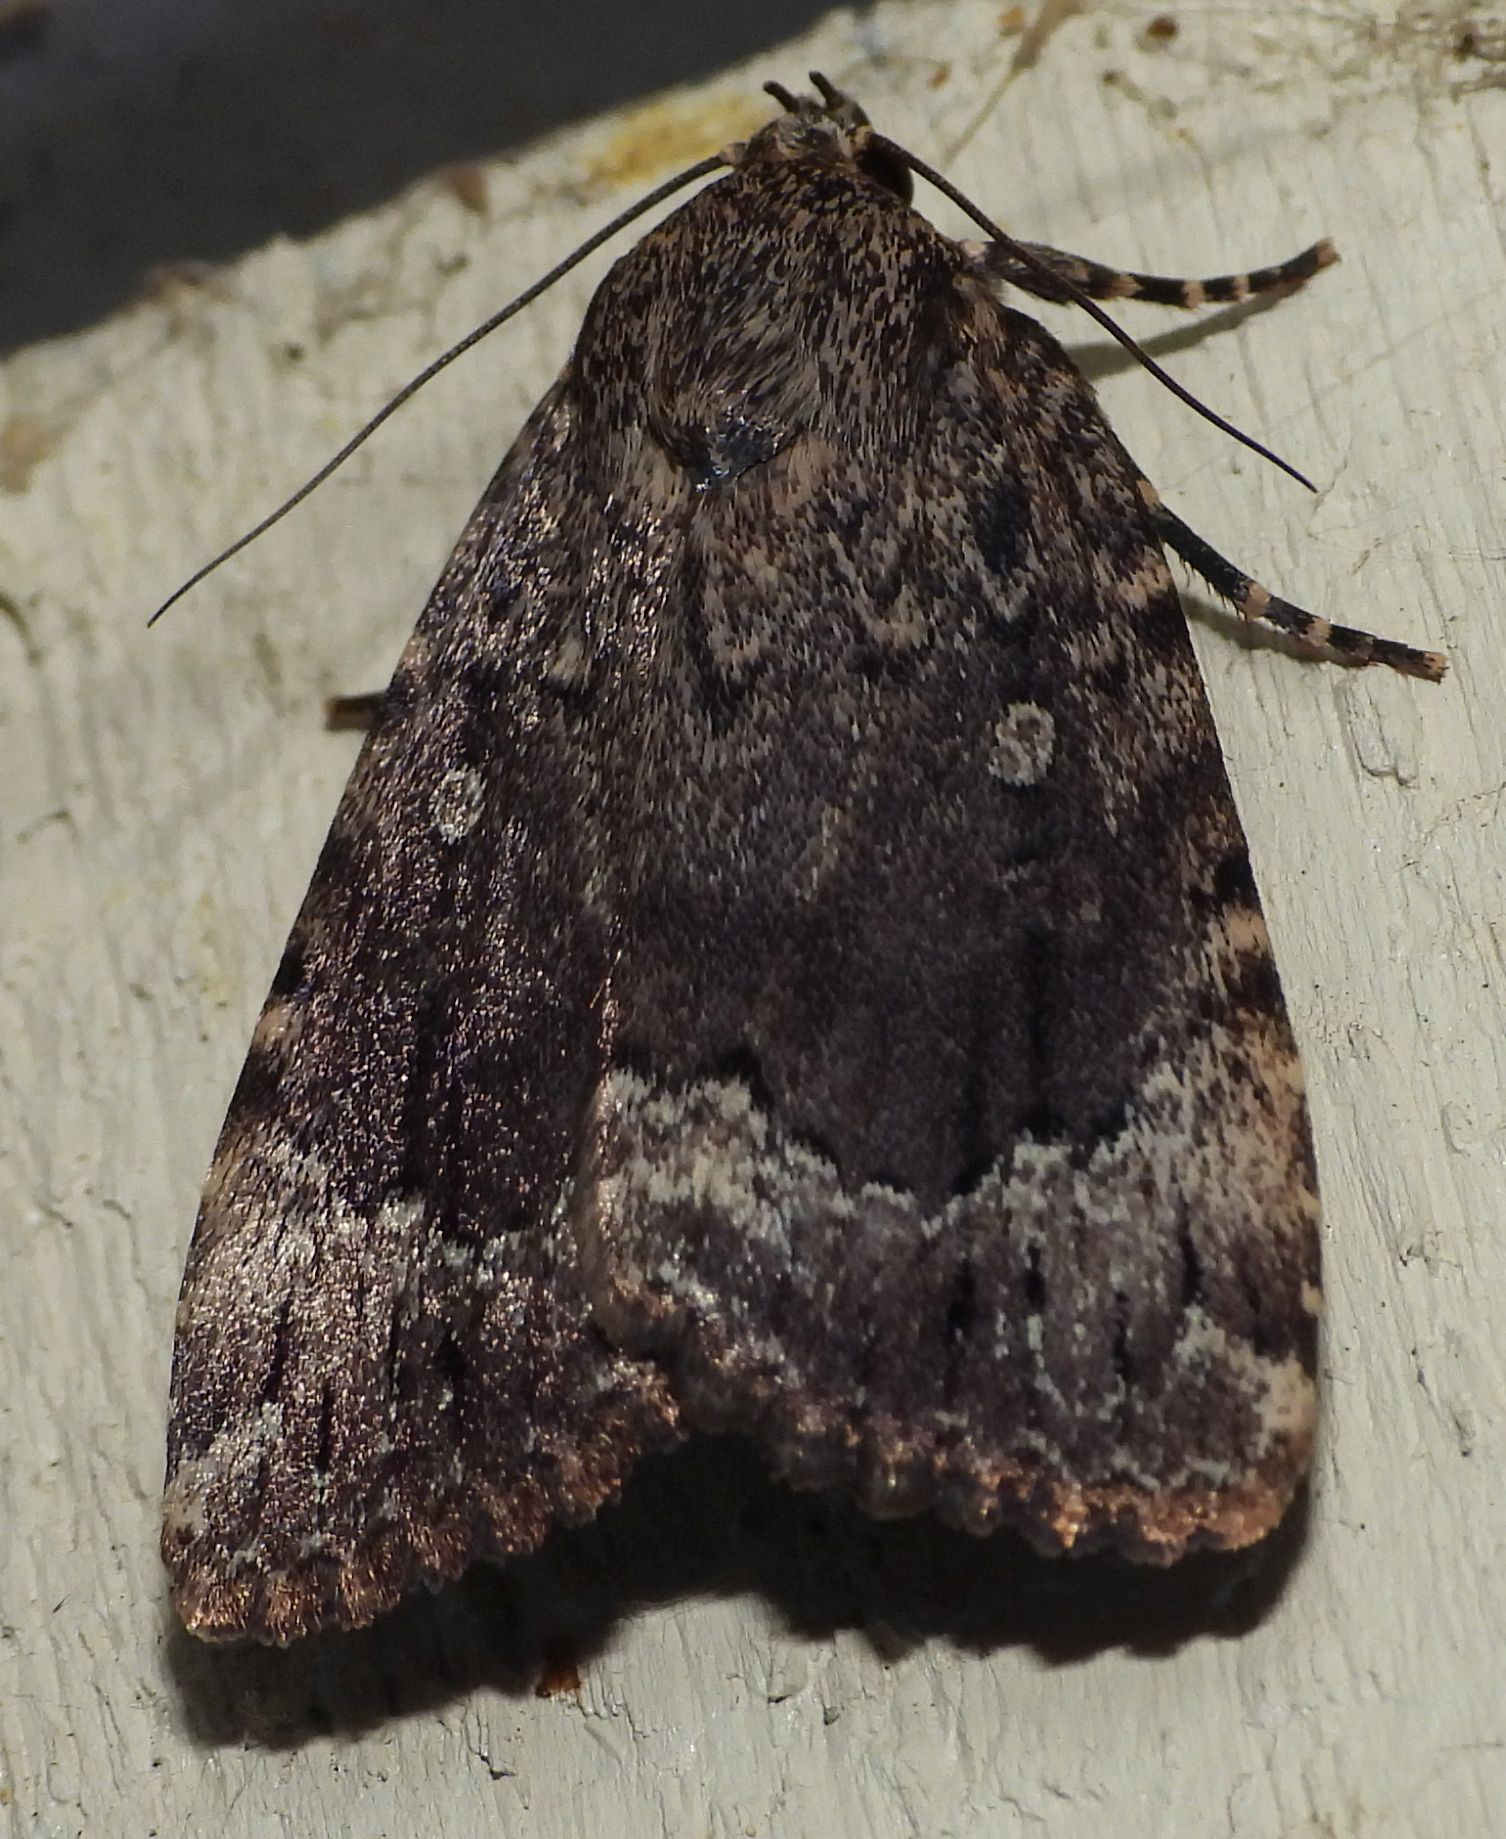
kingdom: Animalia
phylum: Arthropoda
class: Insecta
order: Lepidoptera
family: Noctuidae
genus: Amphipyra
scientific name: Amphipyra pyramidoides
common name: American copper underwing
